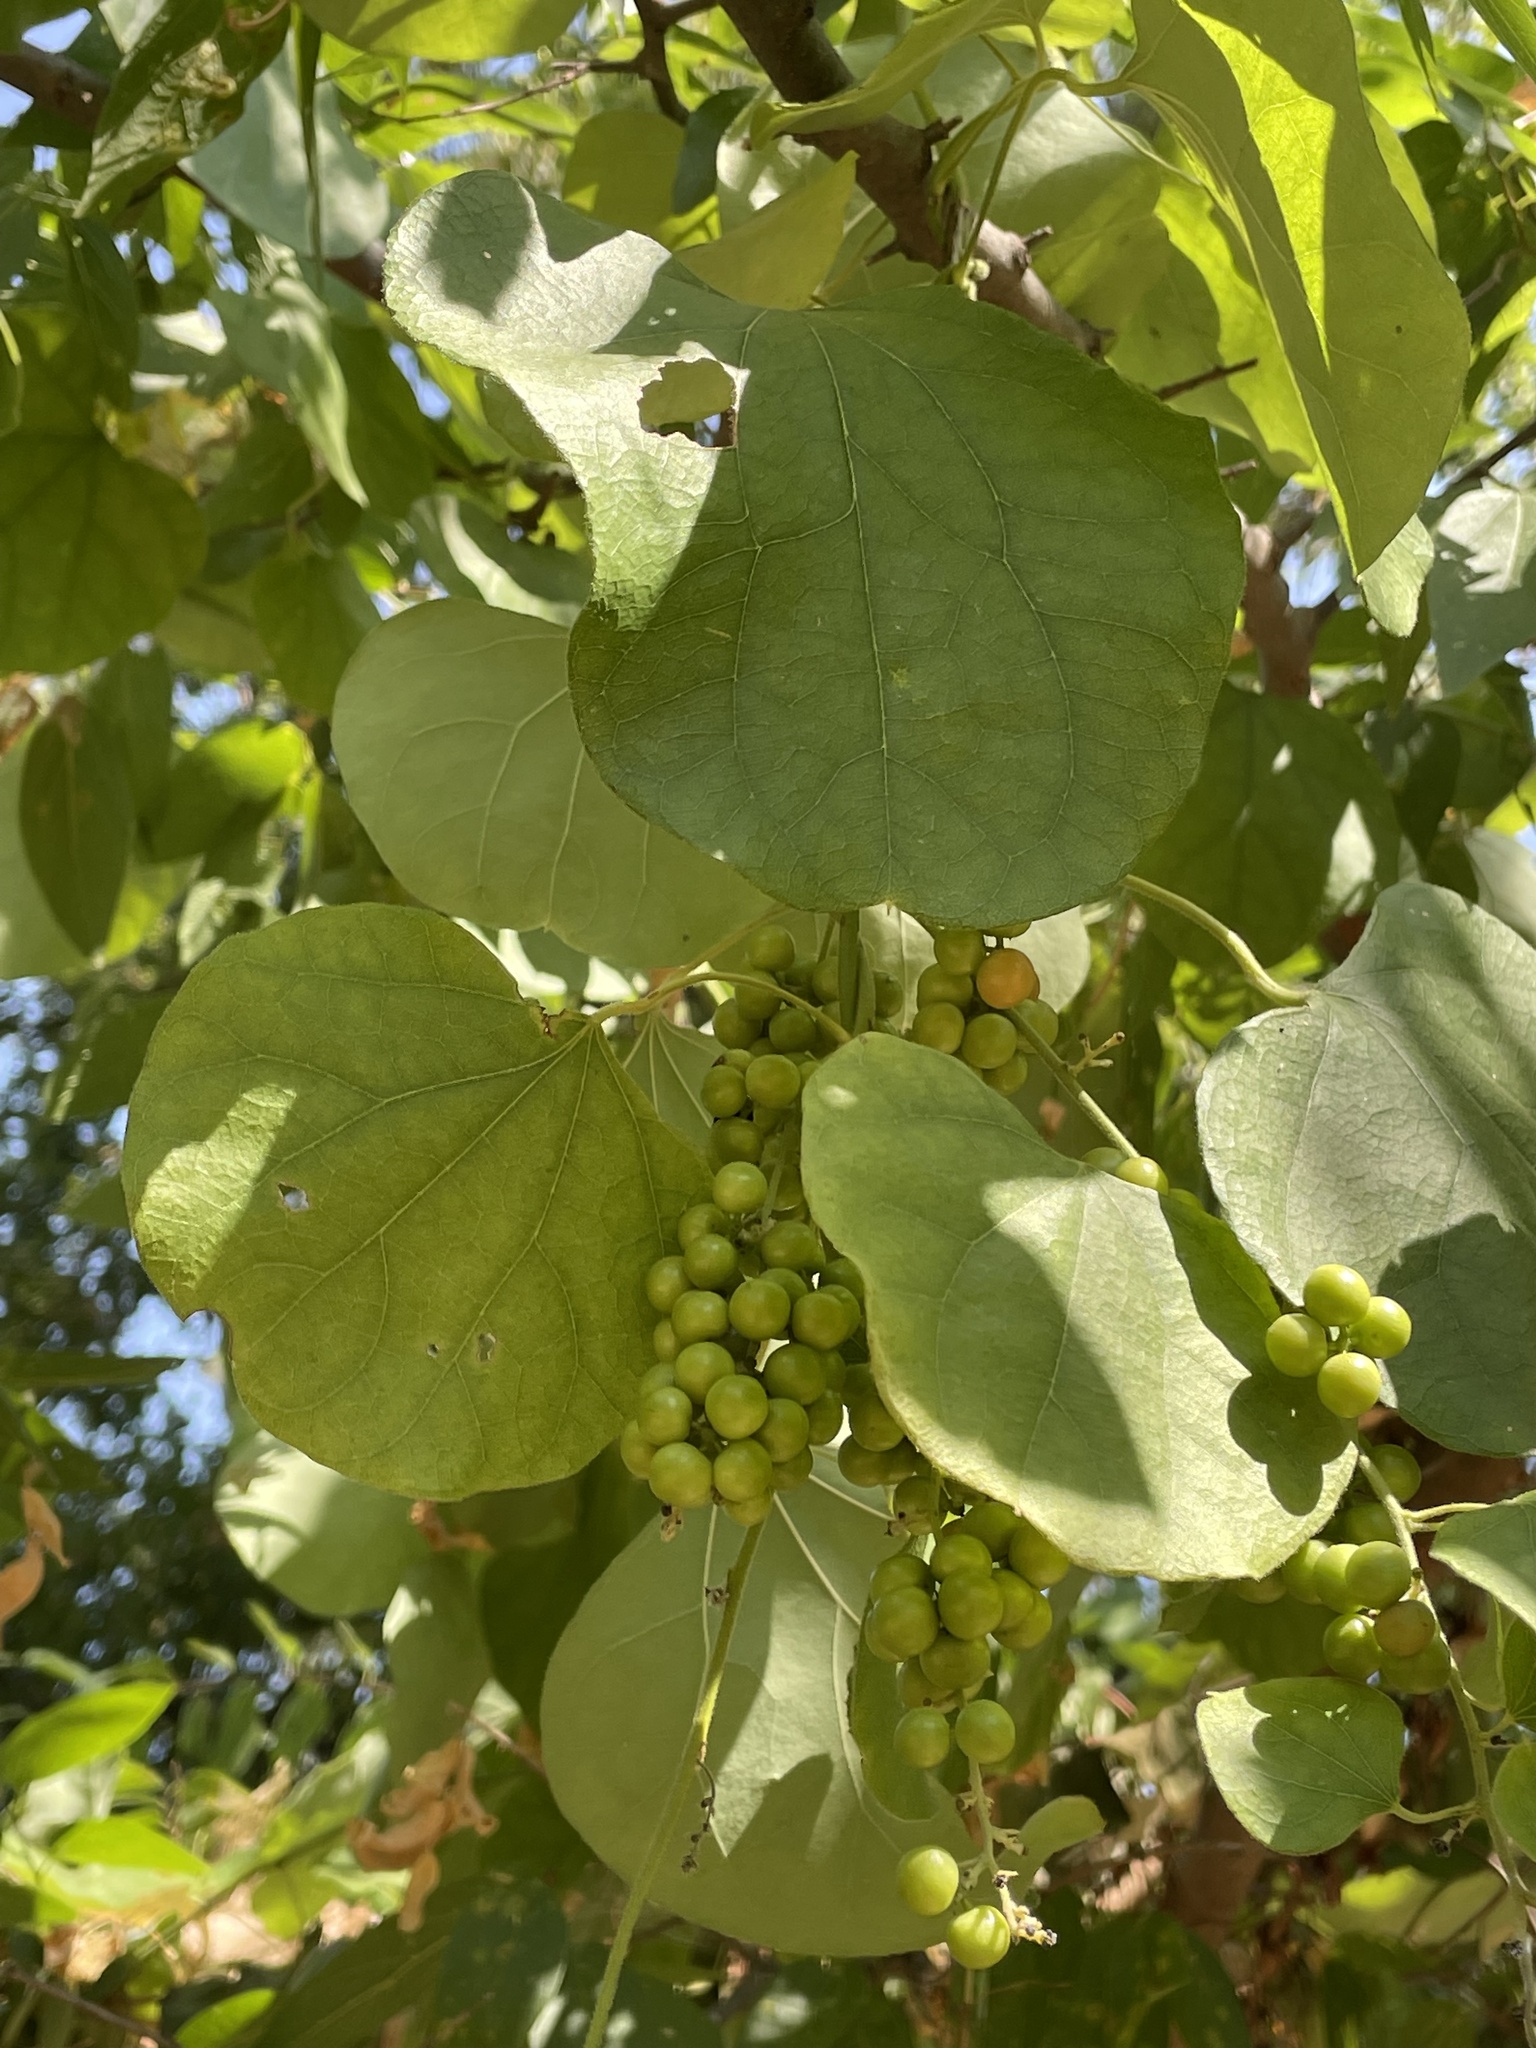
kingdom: Plantae
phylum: Tracheophyta
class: Magnoliopsida
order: Ranunculales
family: Menispermaceae
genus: Cocculus
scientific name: Cocculus carolinus
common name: Carolina moonseed
